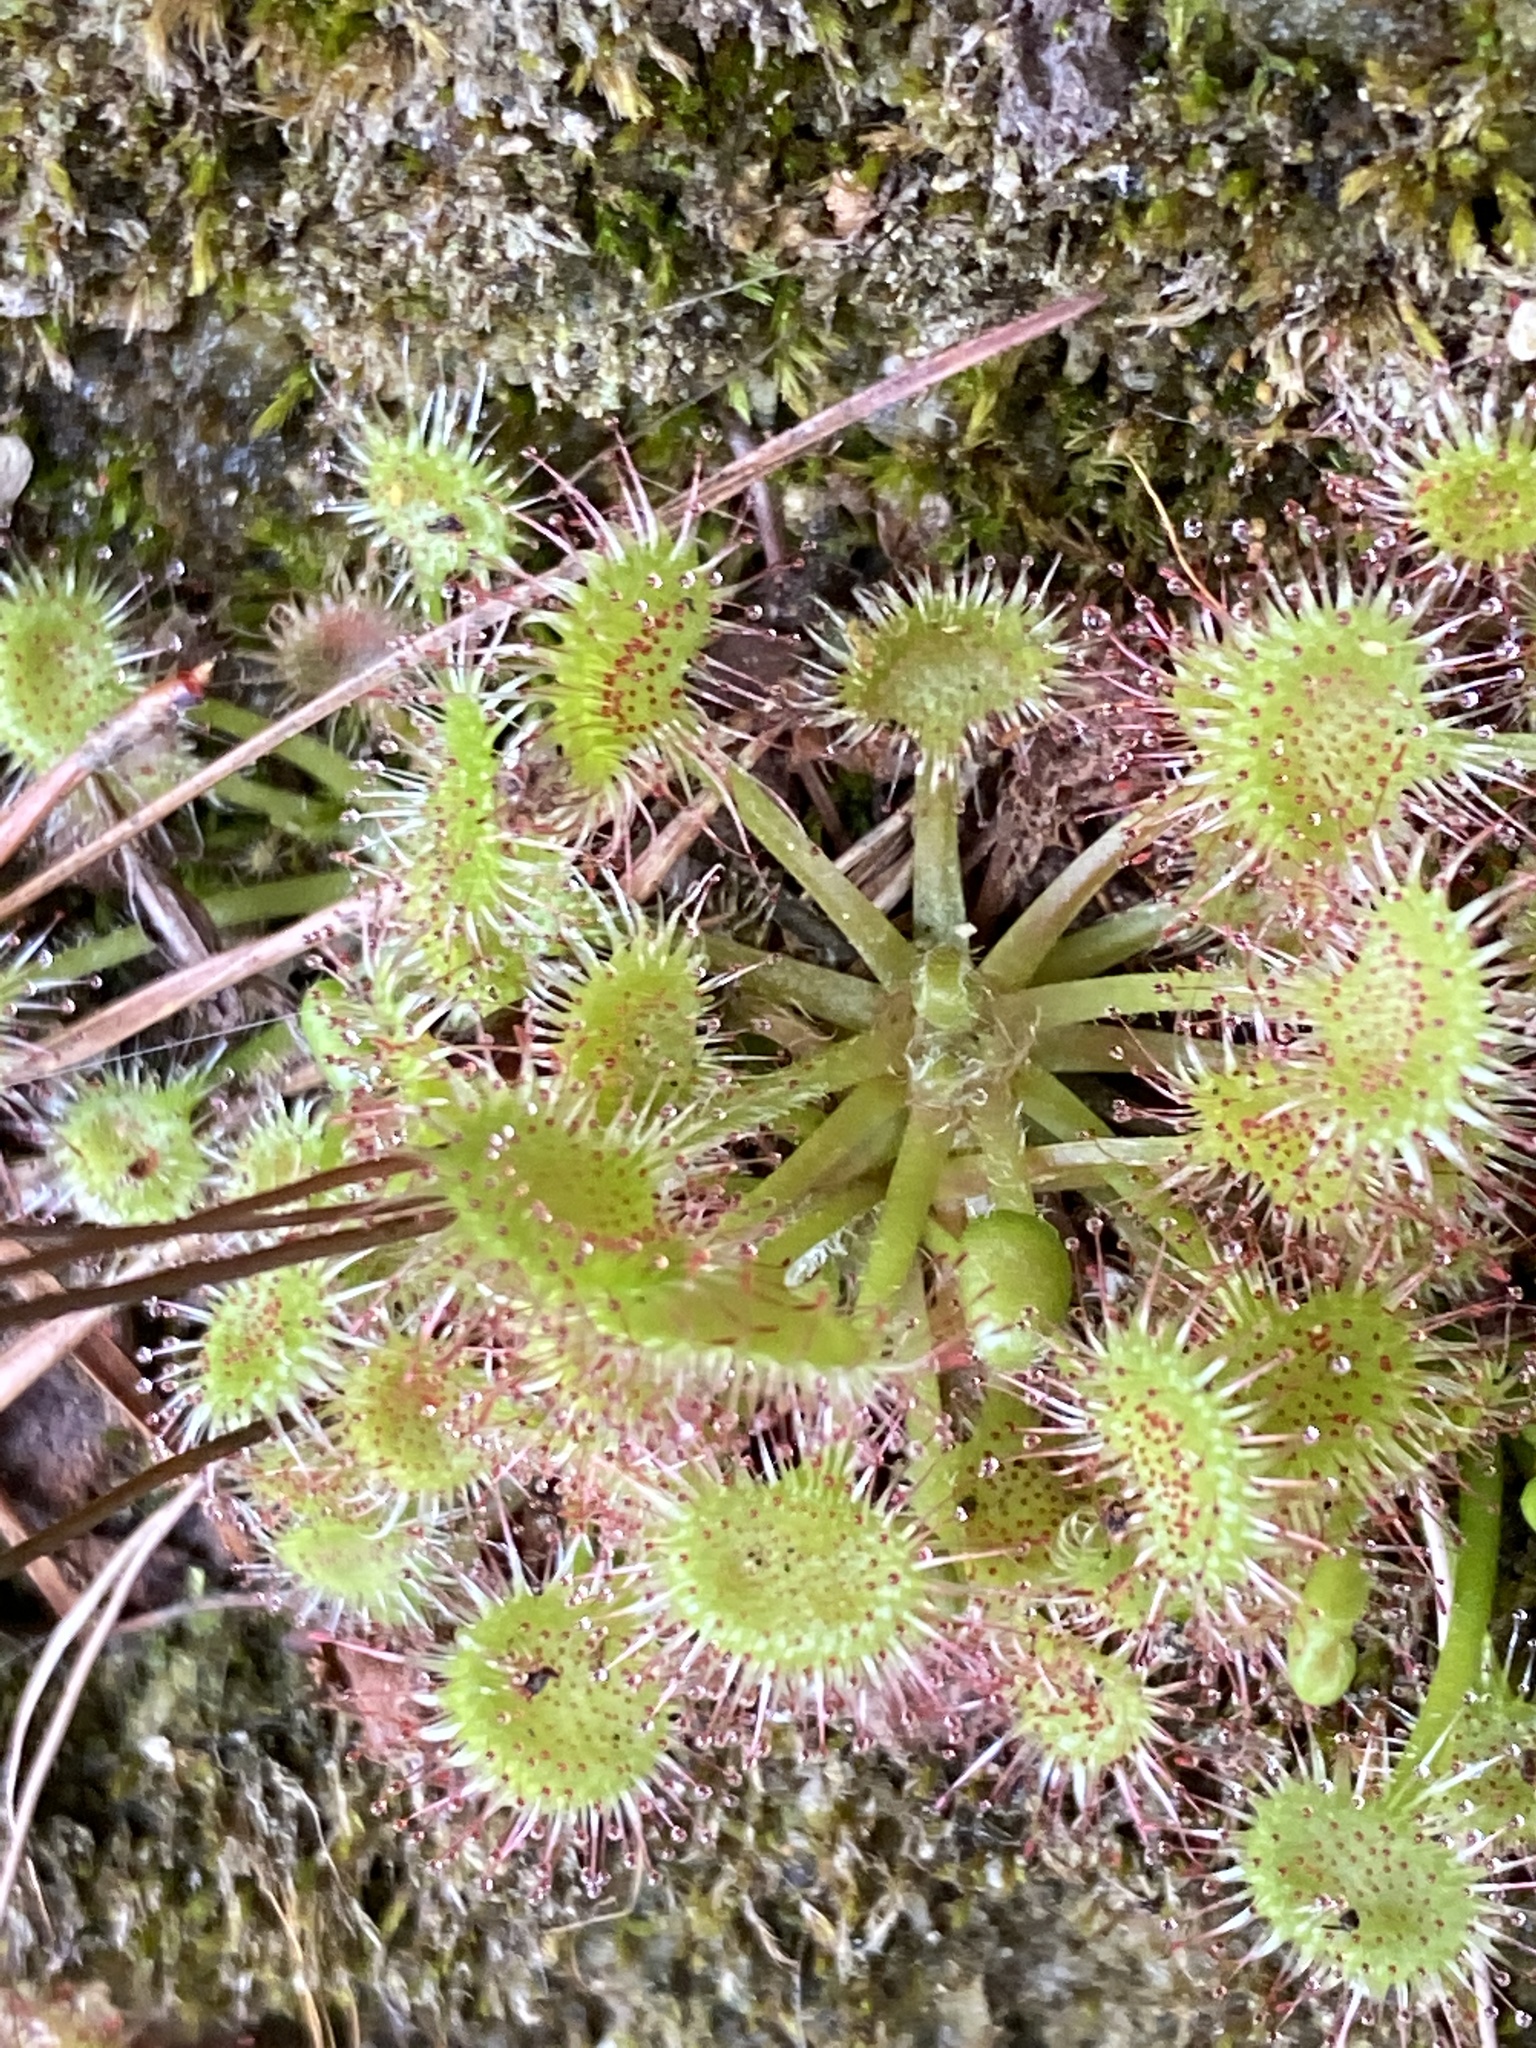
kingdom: Plantae
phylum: Tracheophyta
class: Magnoliopsida
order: Caryophyllales
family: Droseraceae
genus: Drosera
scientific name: Drosera rotundifolia
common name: Round-leaved sundew
